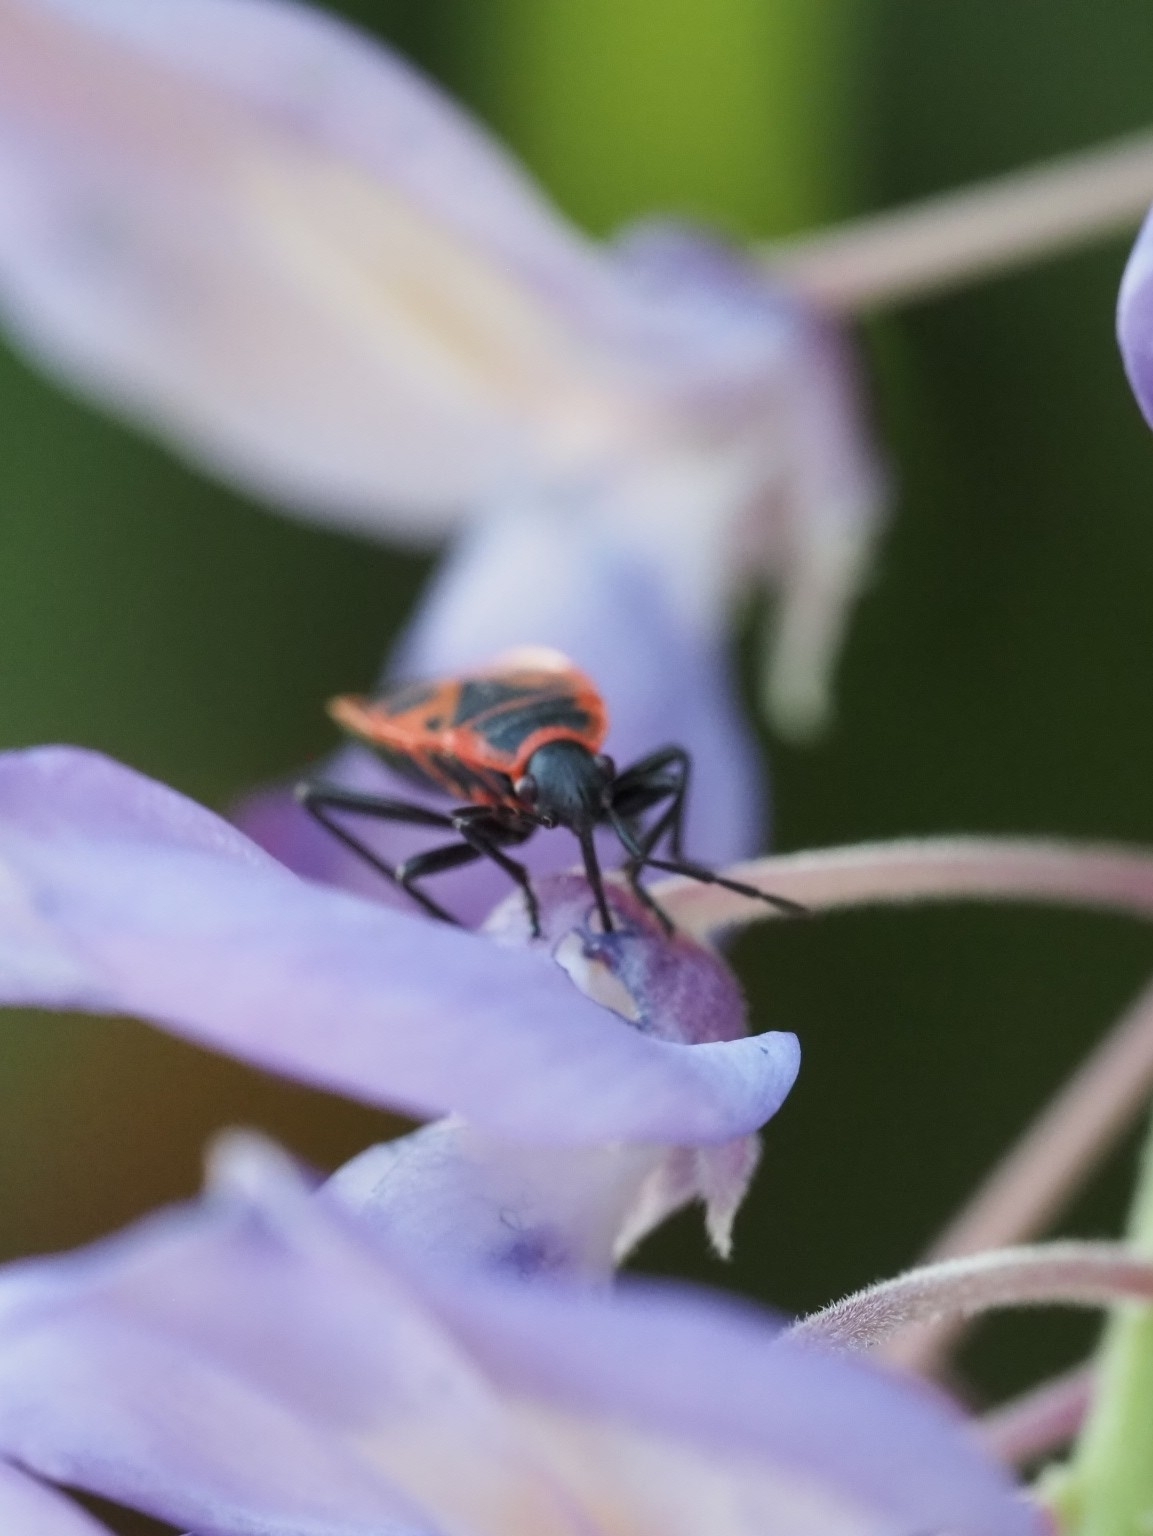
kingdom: Animalia
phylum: Arthropoda
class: Insecta
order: Hemiptera
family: Pyrrhocoridae
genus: Pyrrhocoris
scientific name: Pyrrhocoris apterus
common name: Firebug
